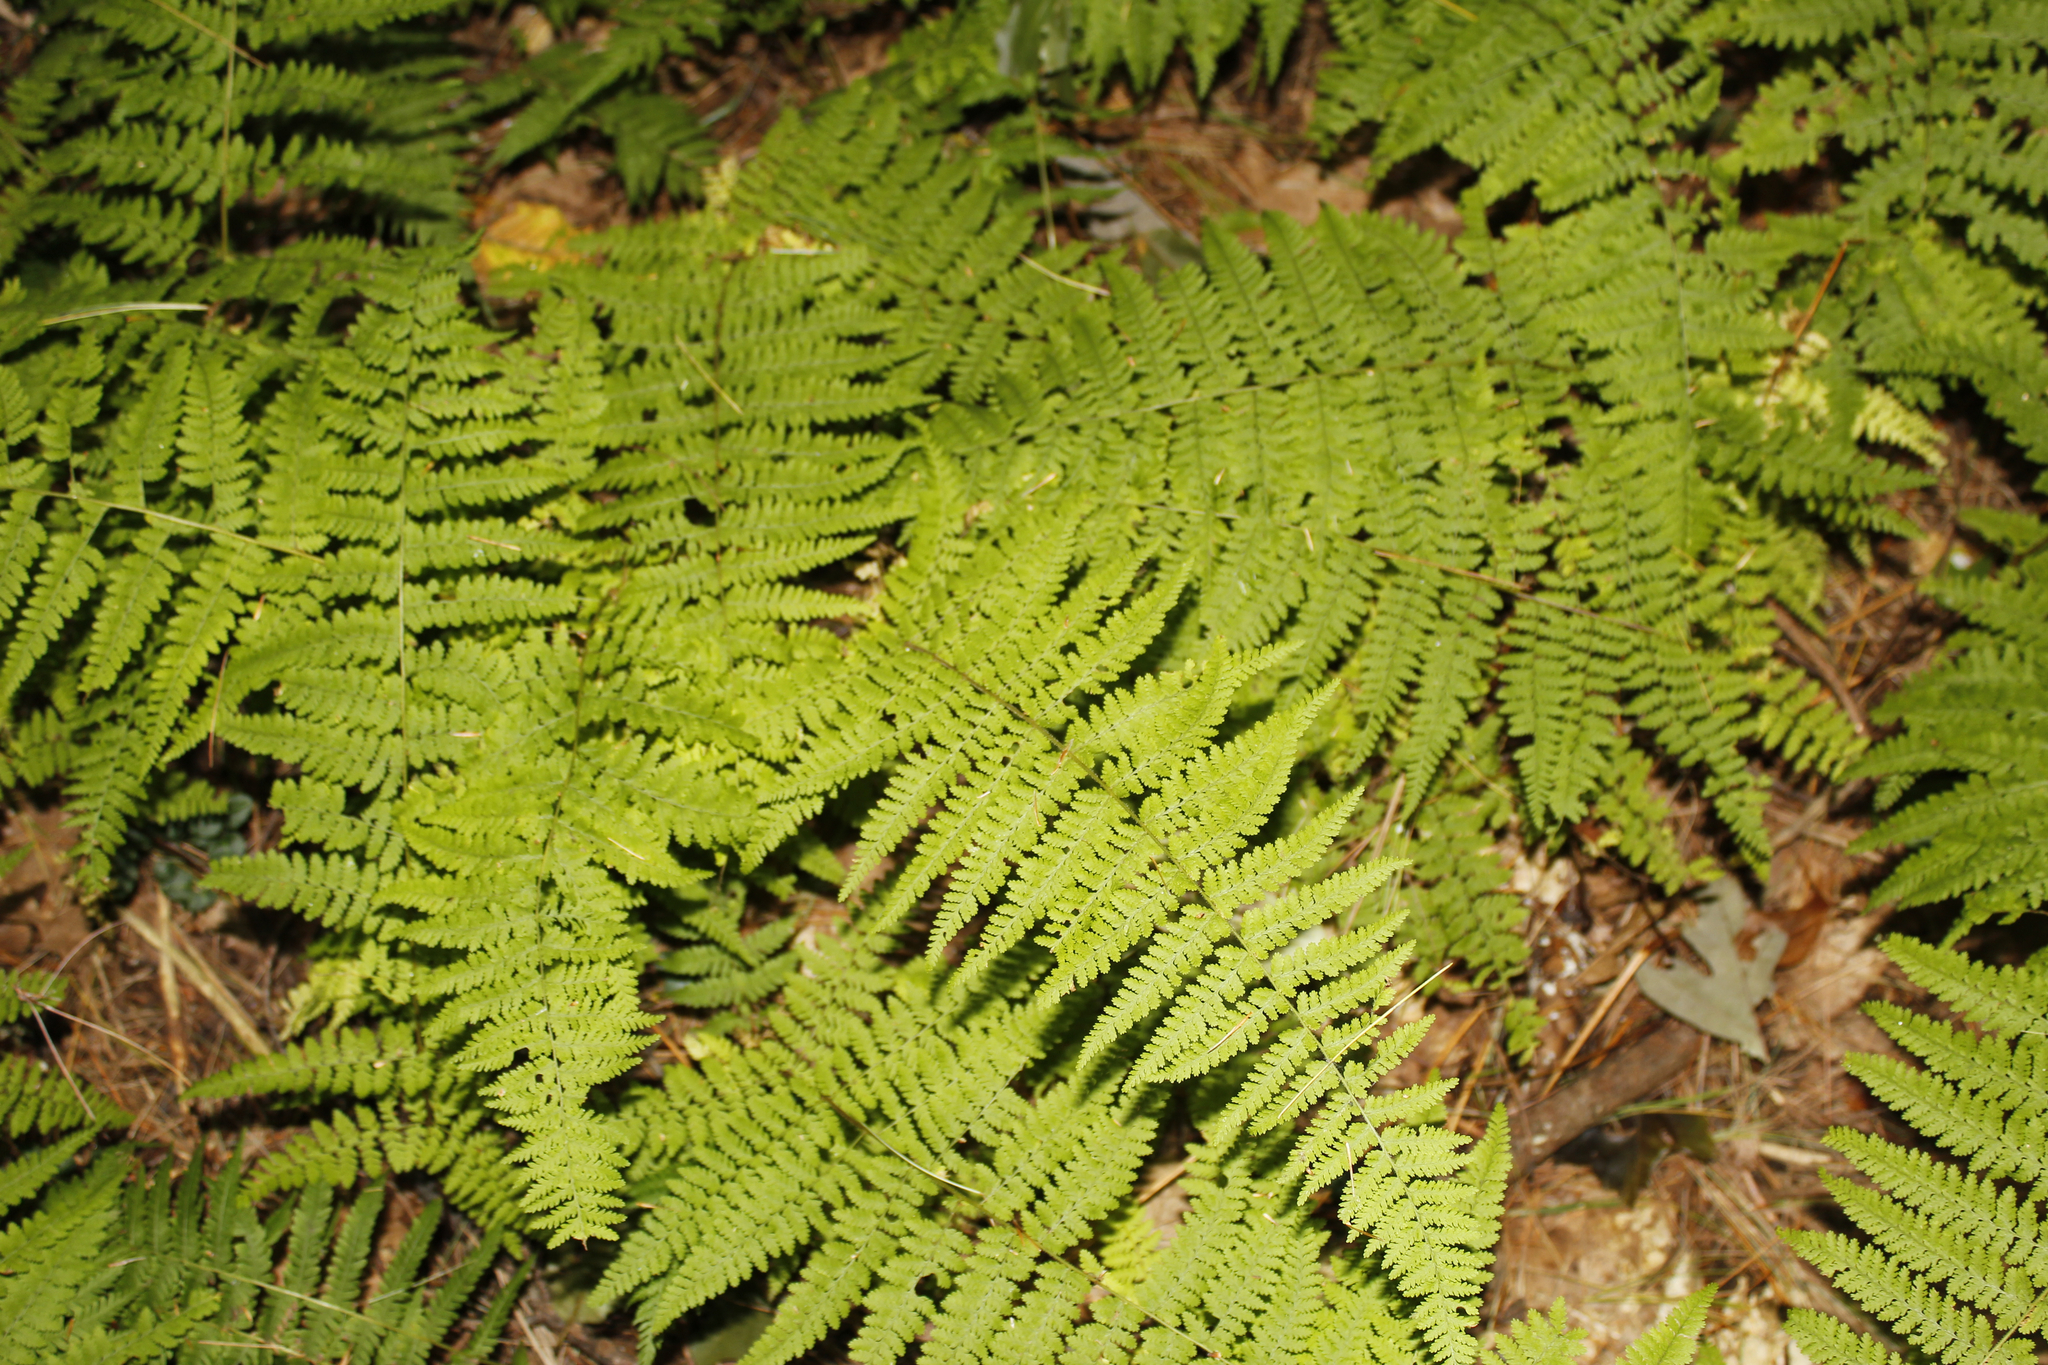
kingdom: Plantae
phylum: Tracheophyta
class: Polypodiopsida
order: Polypodiales
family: Dennstaedtiaceae
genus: Sitobolium
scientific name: Sitobolium punctilobum
